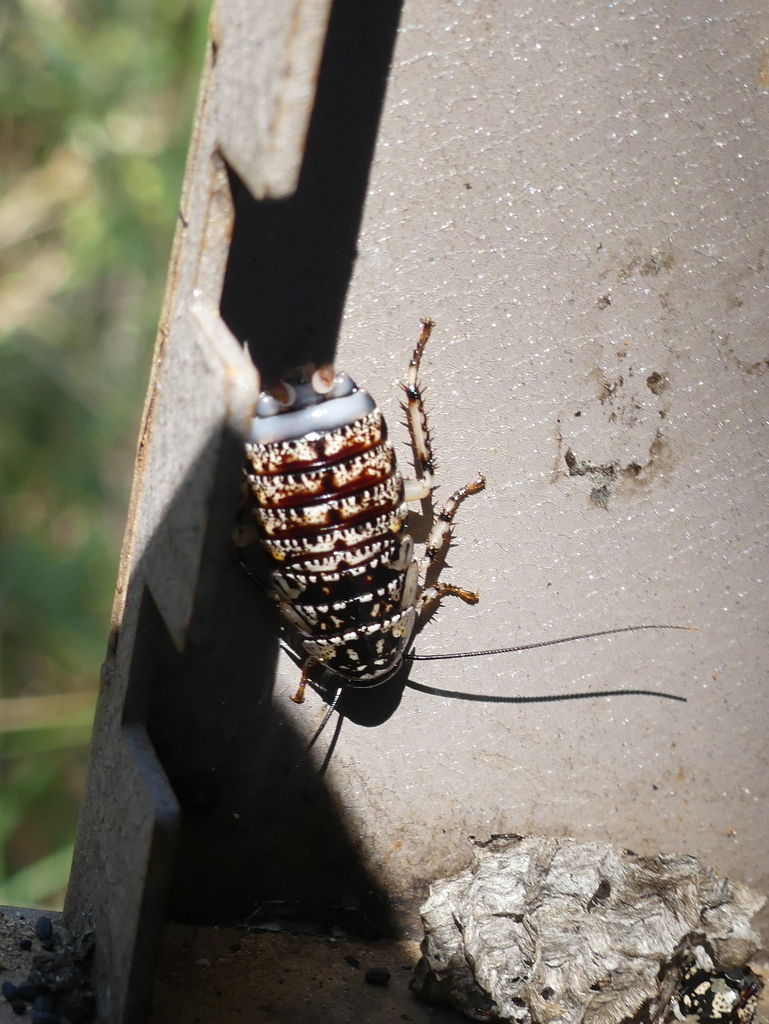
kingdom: Animalia
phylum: Arthropoda
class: Insecta
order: Blattodea
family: Blattidae
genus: Cartoblatta
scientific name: Cartoblatta pulchra
